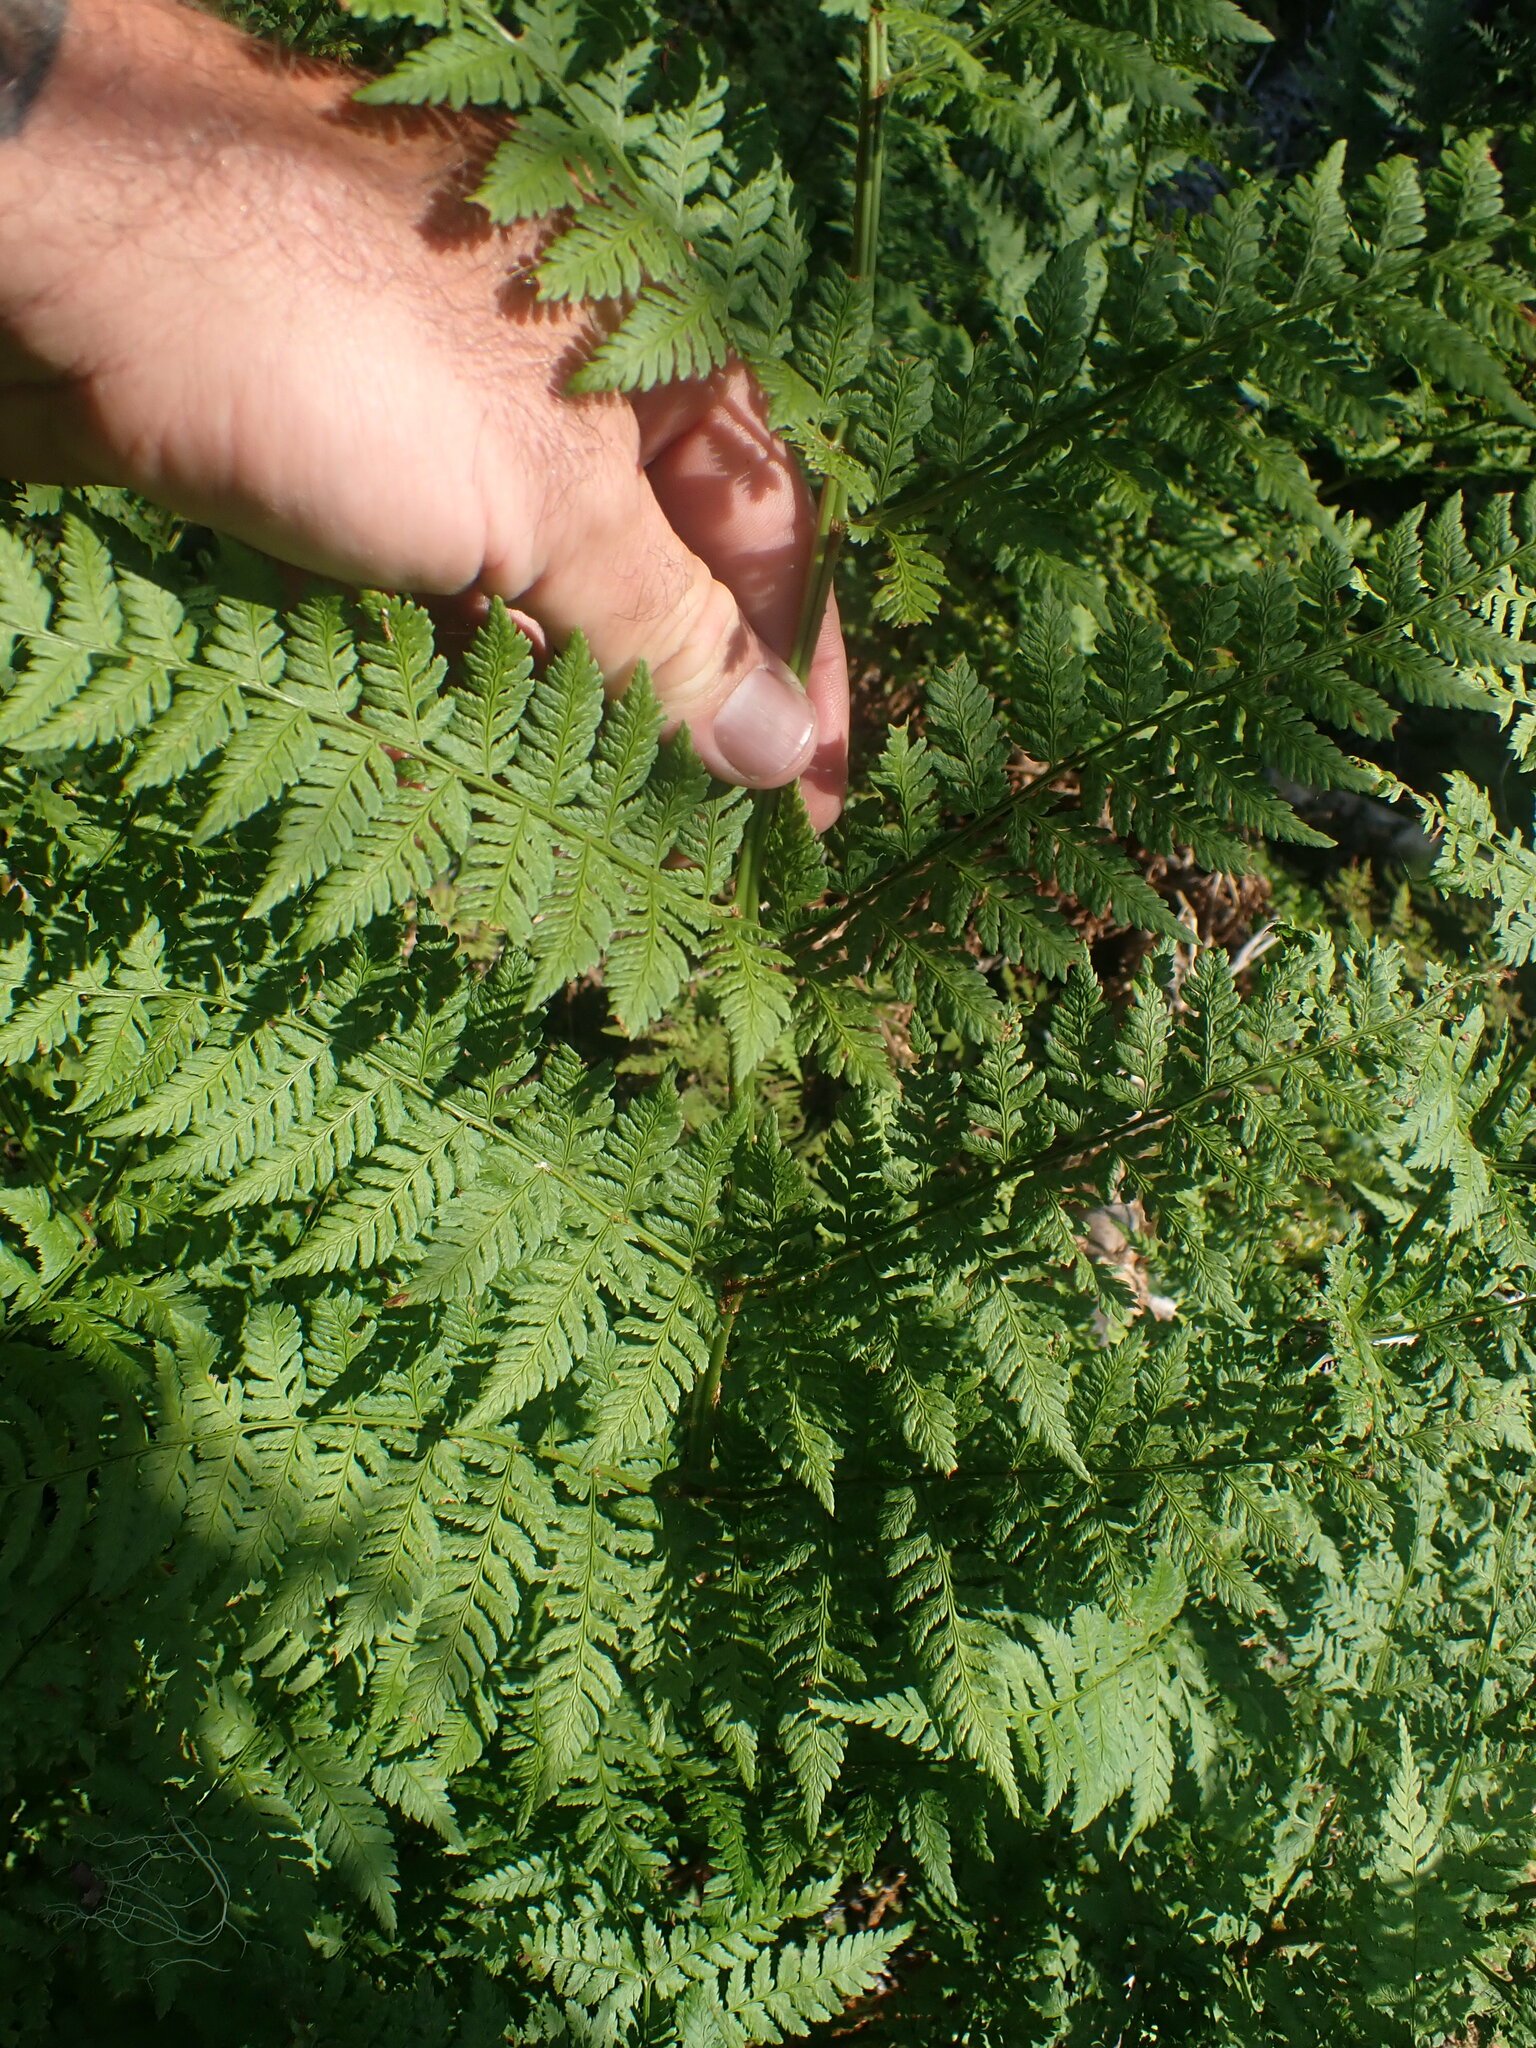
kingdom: Plantae
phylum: Tracheophyta
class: Polypodiopsida
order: Polypodiales
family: Dryopteridaceae
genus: Dryopteris
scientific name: Dryopteris expansa
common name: Northern buckler fern
